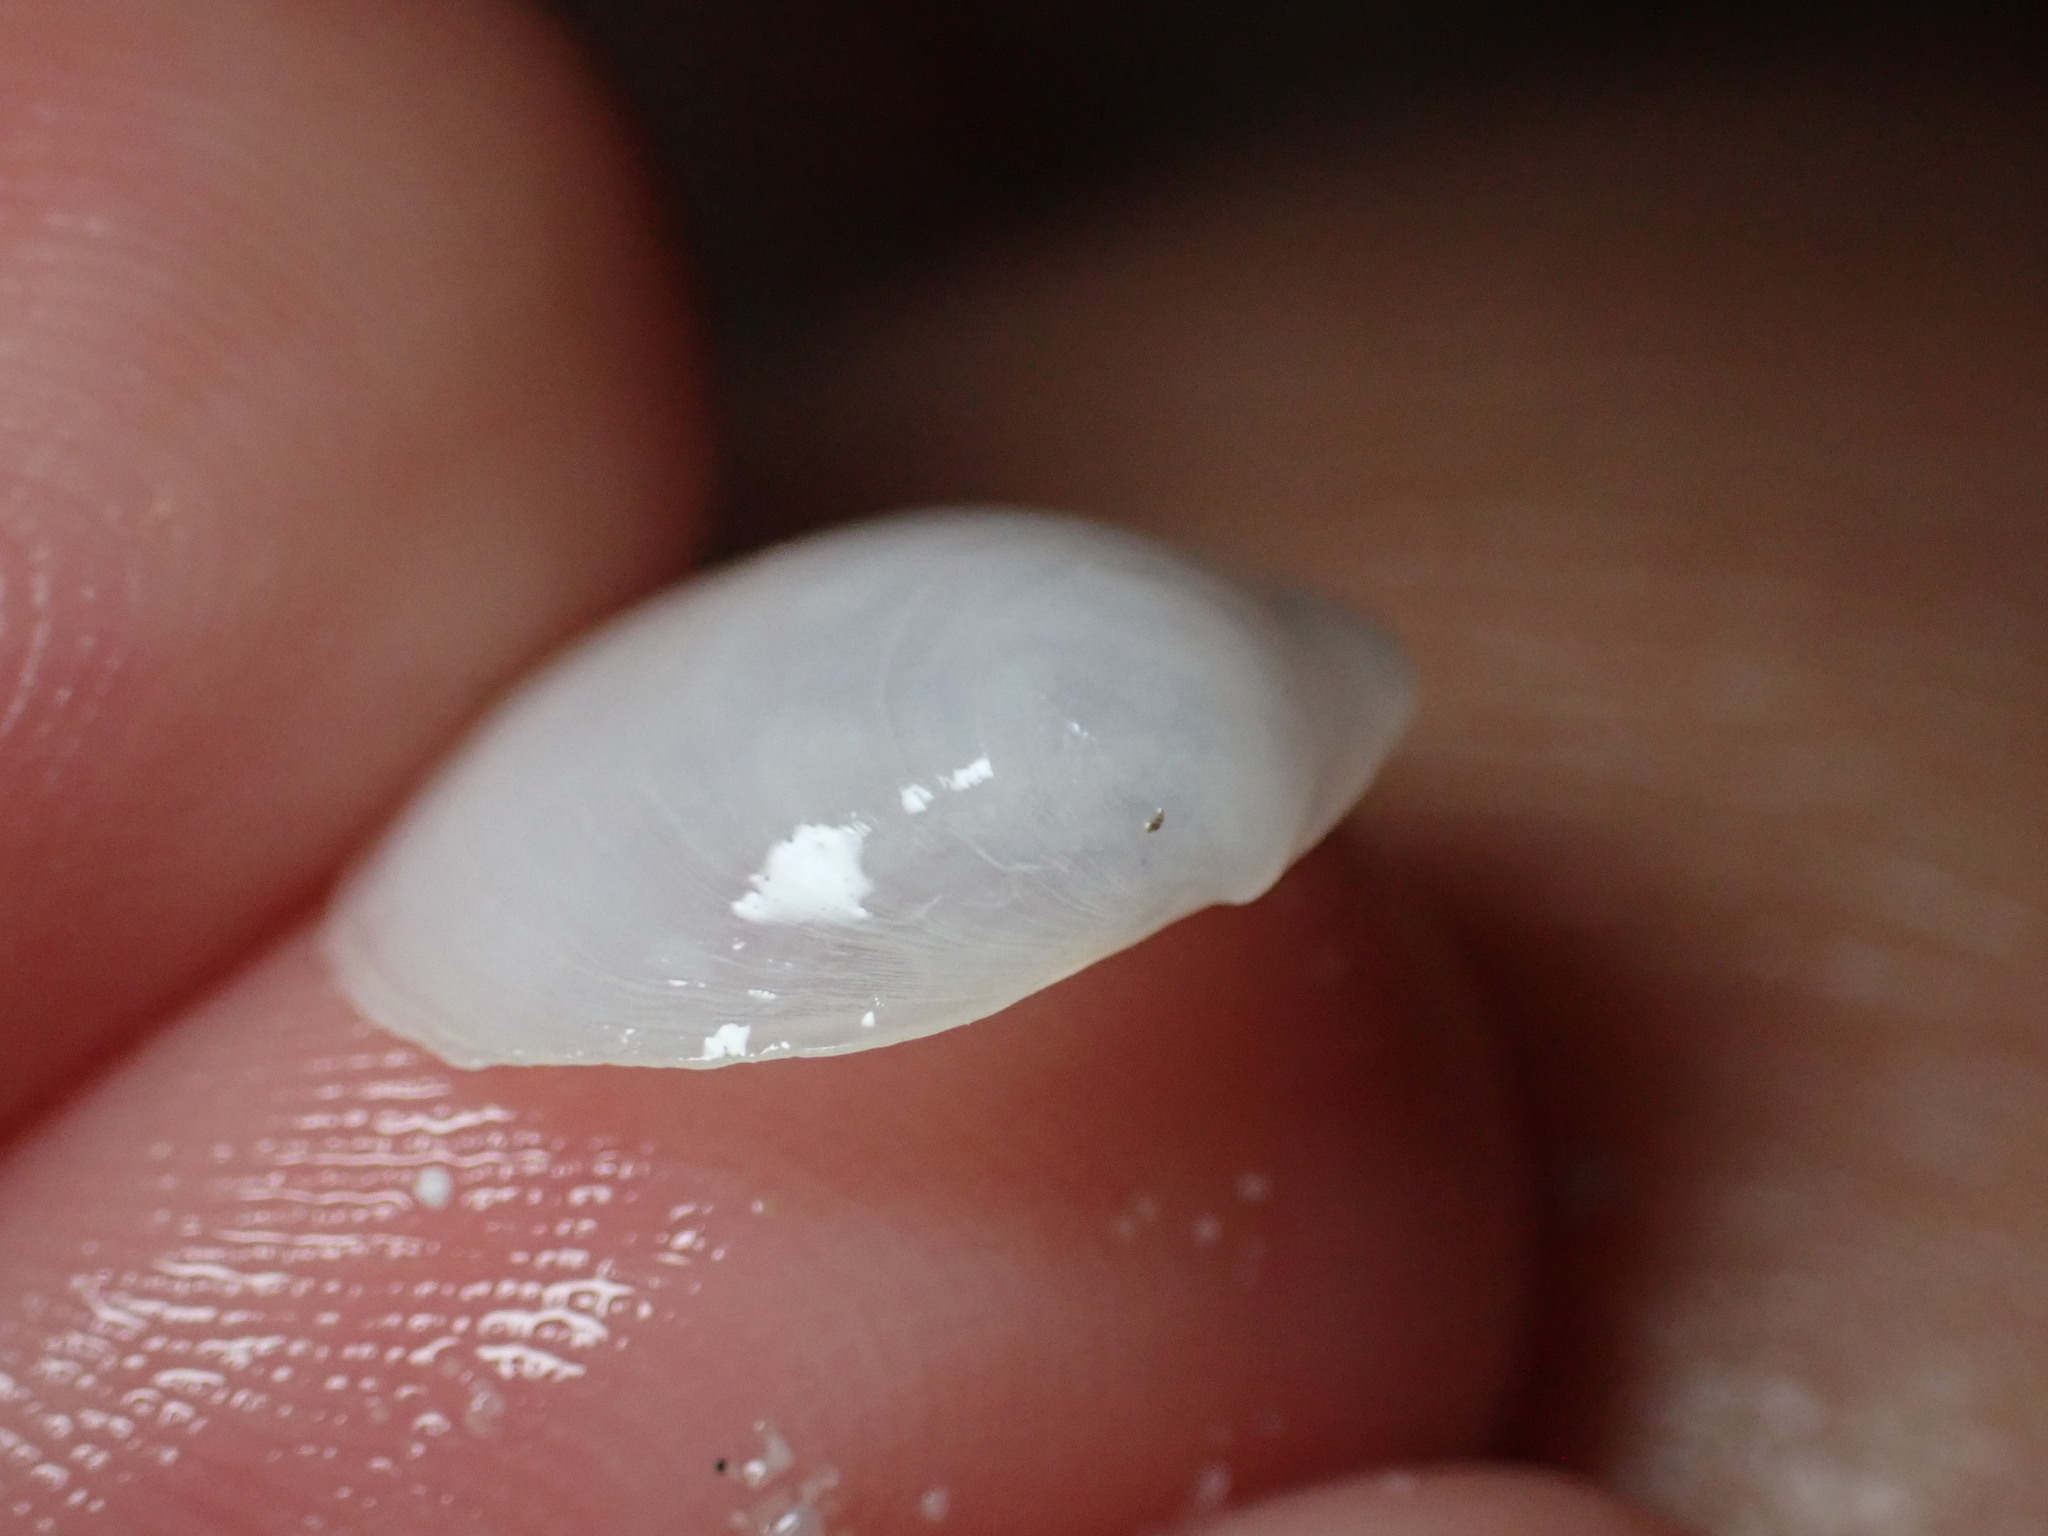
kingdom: Animalia
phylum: Mollusca
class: Bivalvia
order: Lucinida
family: Lucinidae
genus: Loripes
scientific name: Loripes orbiculatus
